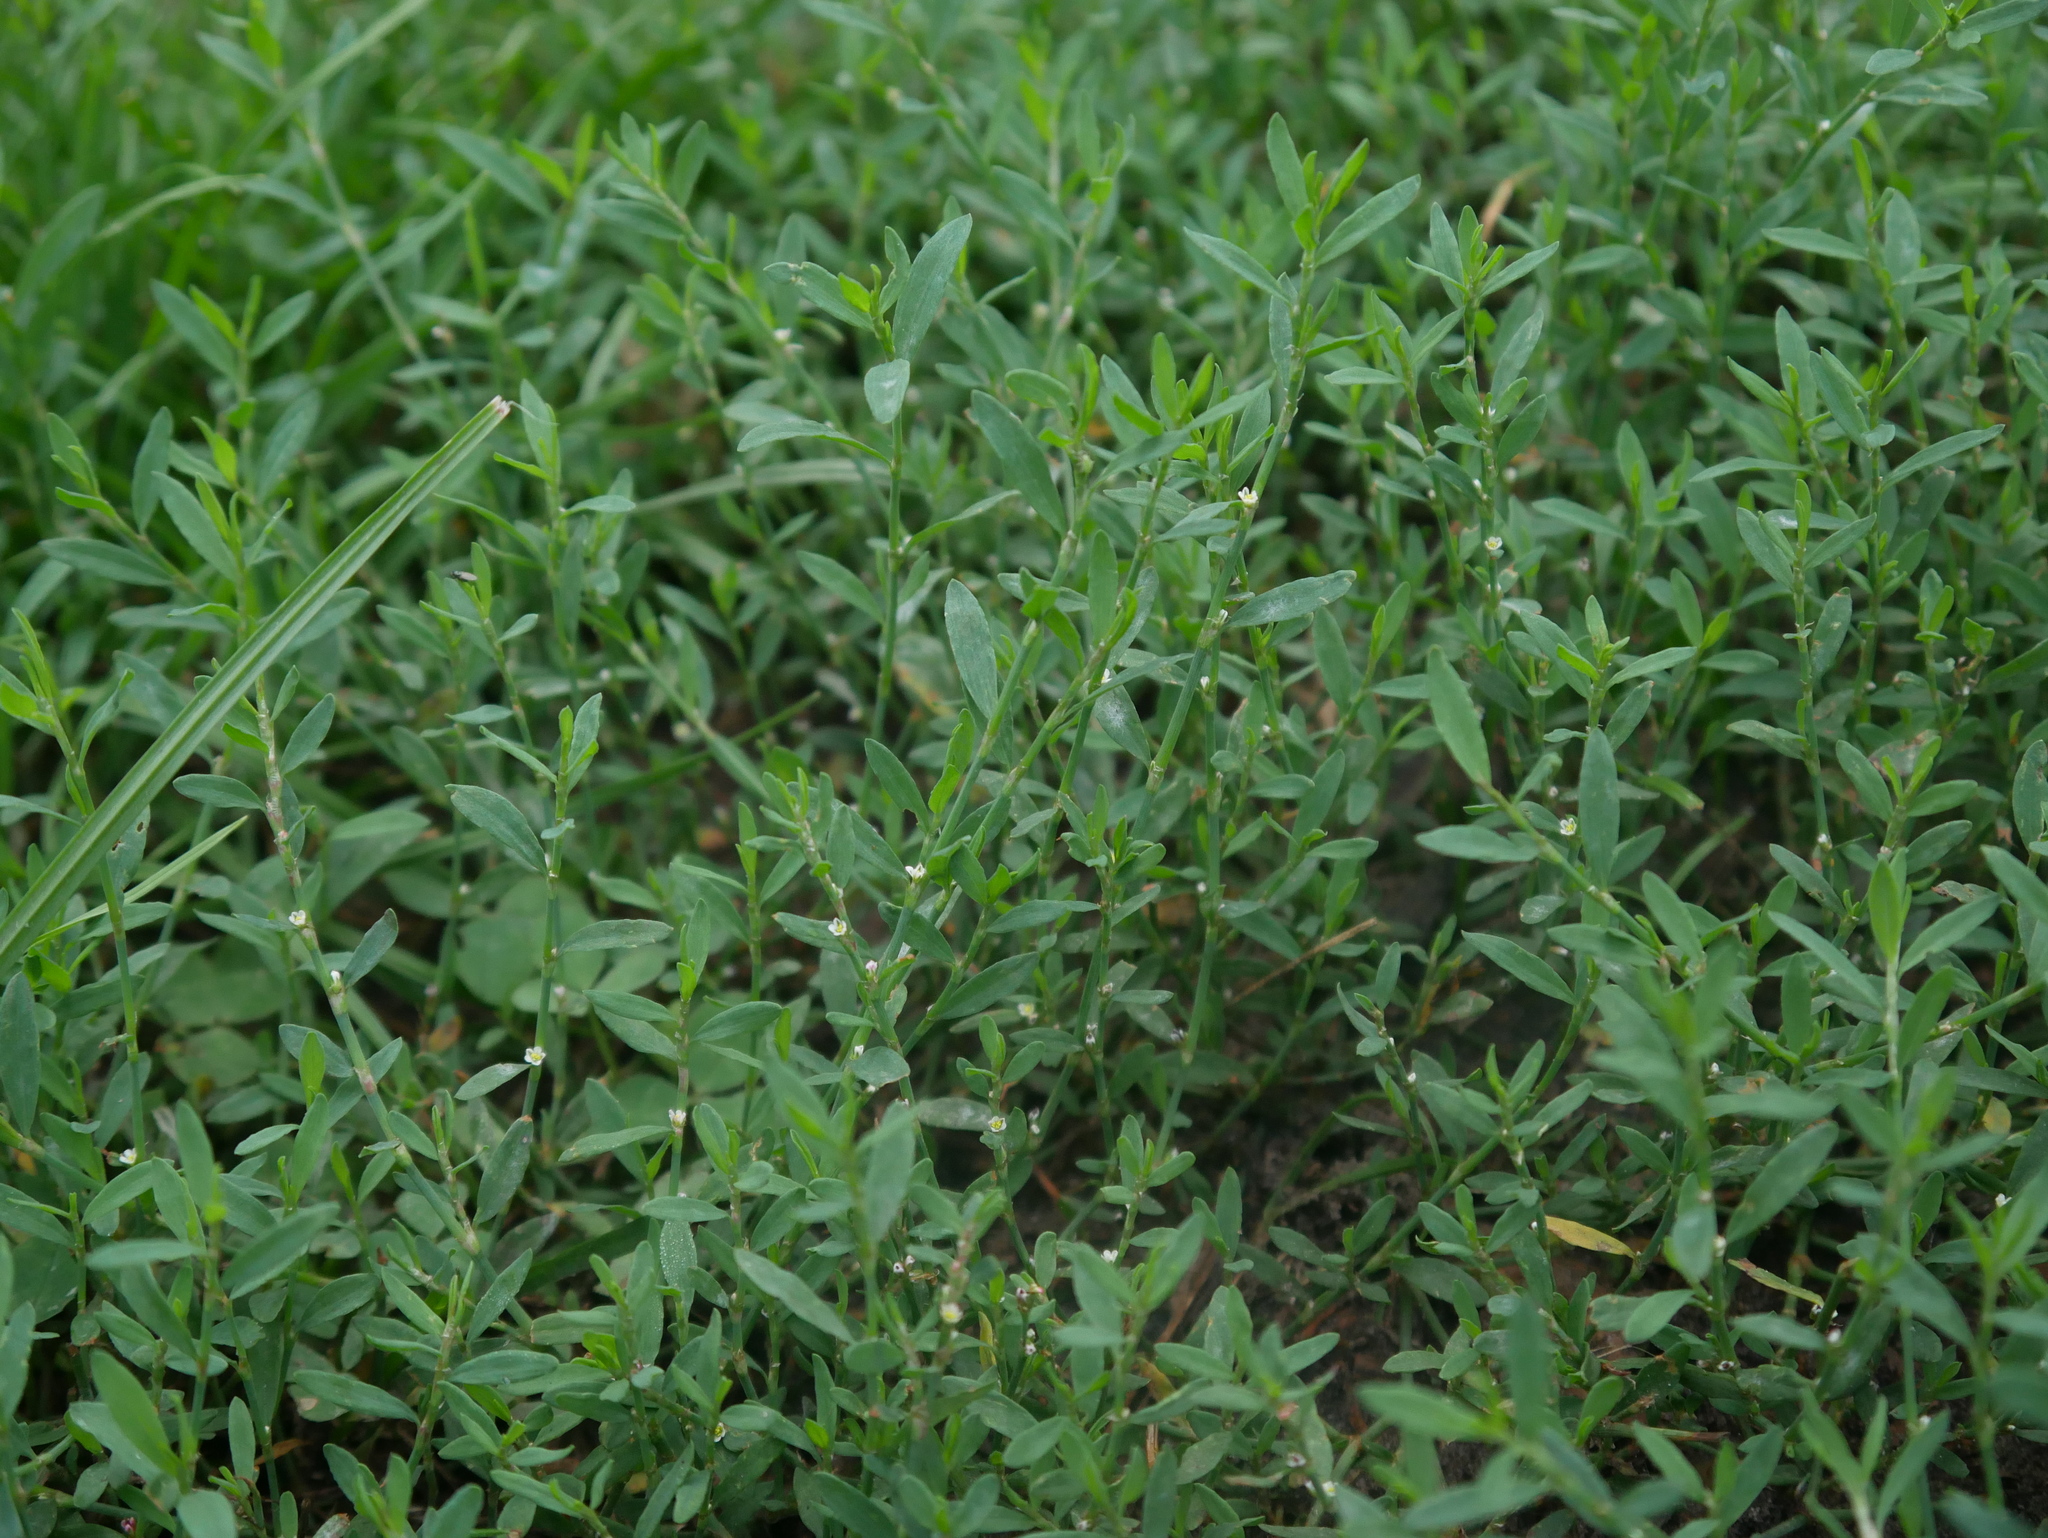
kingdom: Plantae
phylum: Tracheophyta
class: Magnoliopsida
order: Caryophyllales
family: Polygonaceae
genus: Polygonum
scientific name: Polygonum aviculare
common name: Prostrate knotweed
